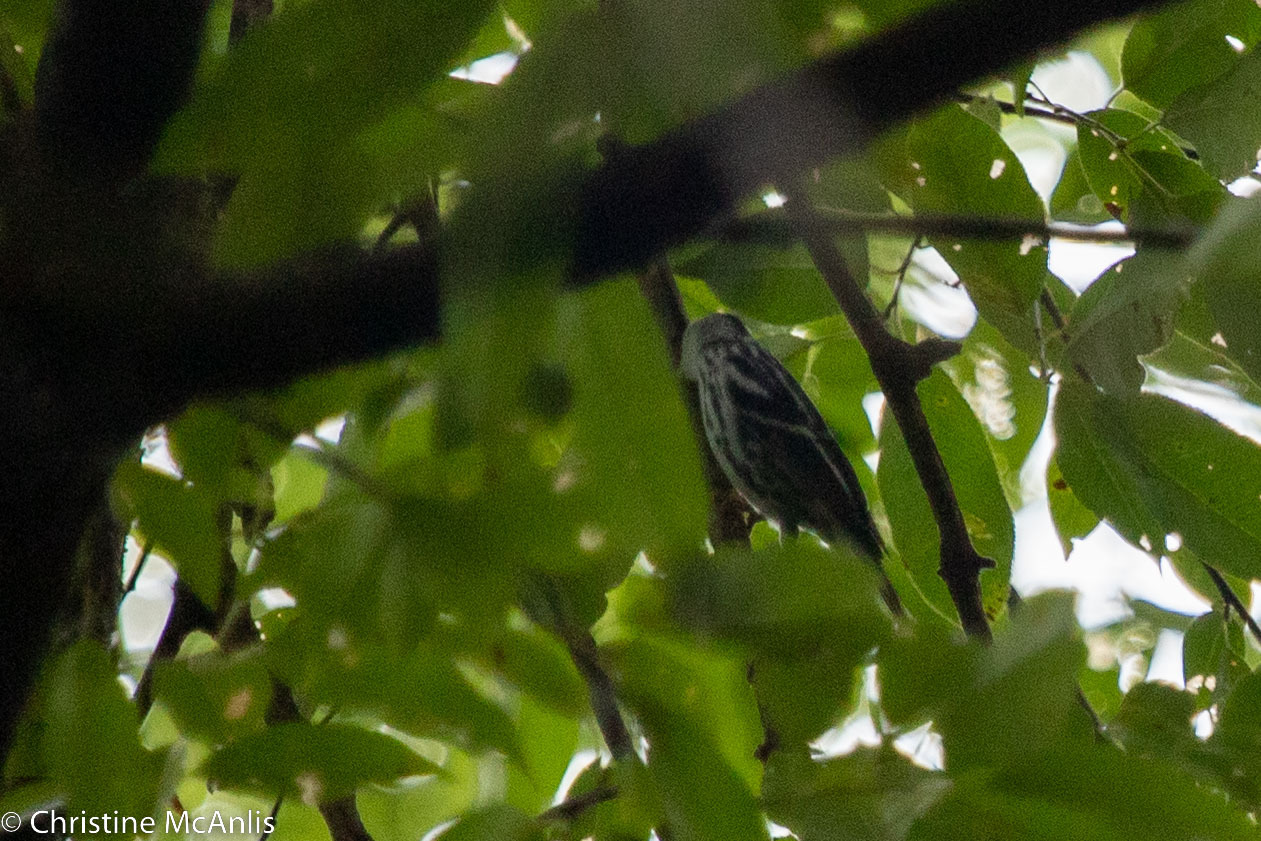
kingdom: Animalia
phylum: Chordata
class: Aves
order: Passeriformes
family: Parulidae
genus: Mniotilta
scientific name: Mniotilta varia
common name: Black-and-white warbler
